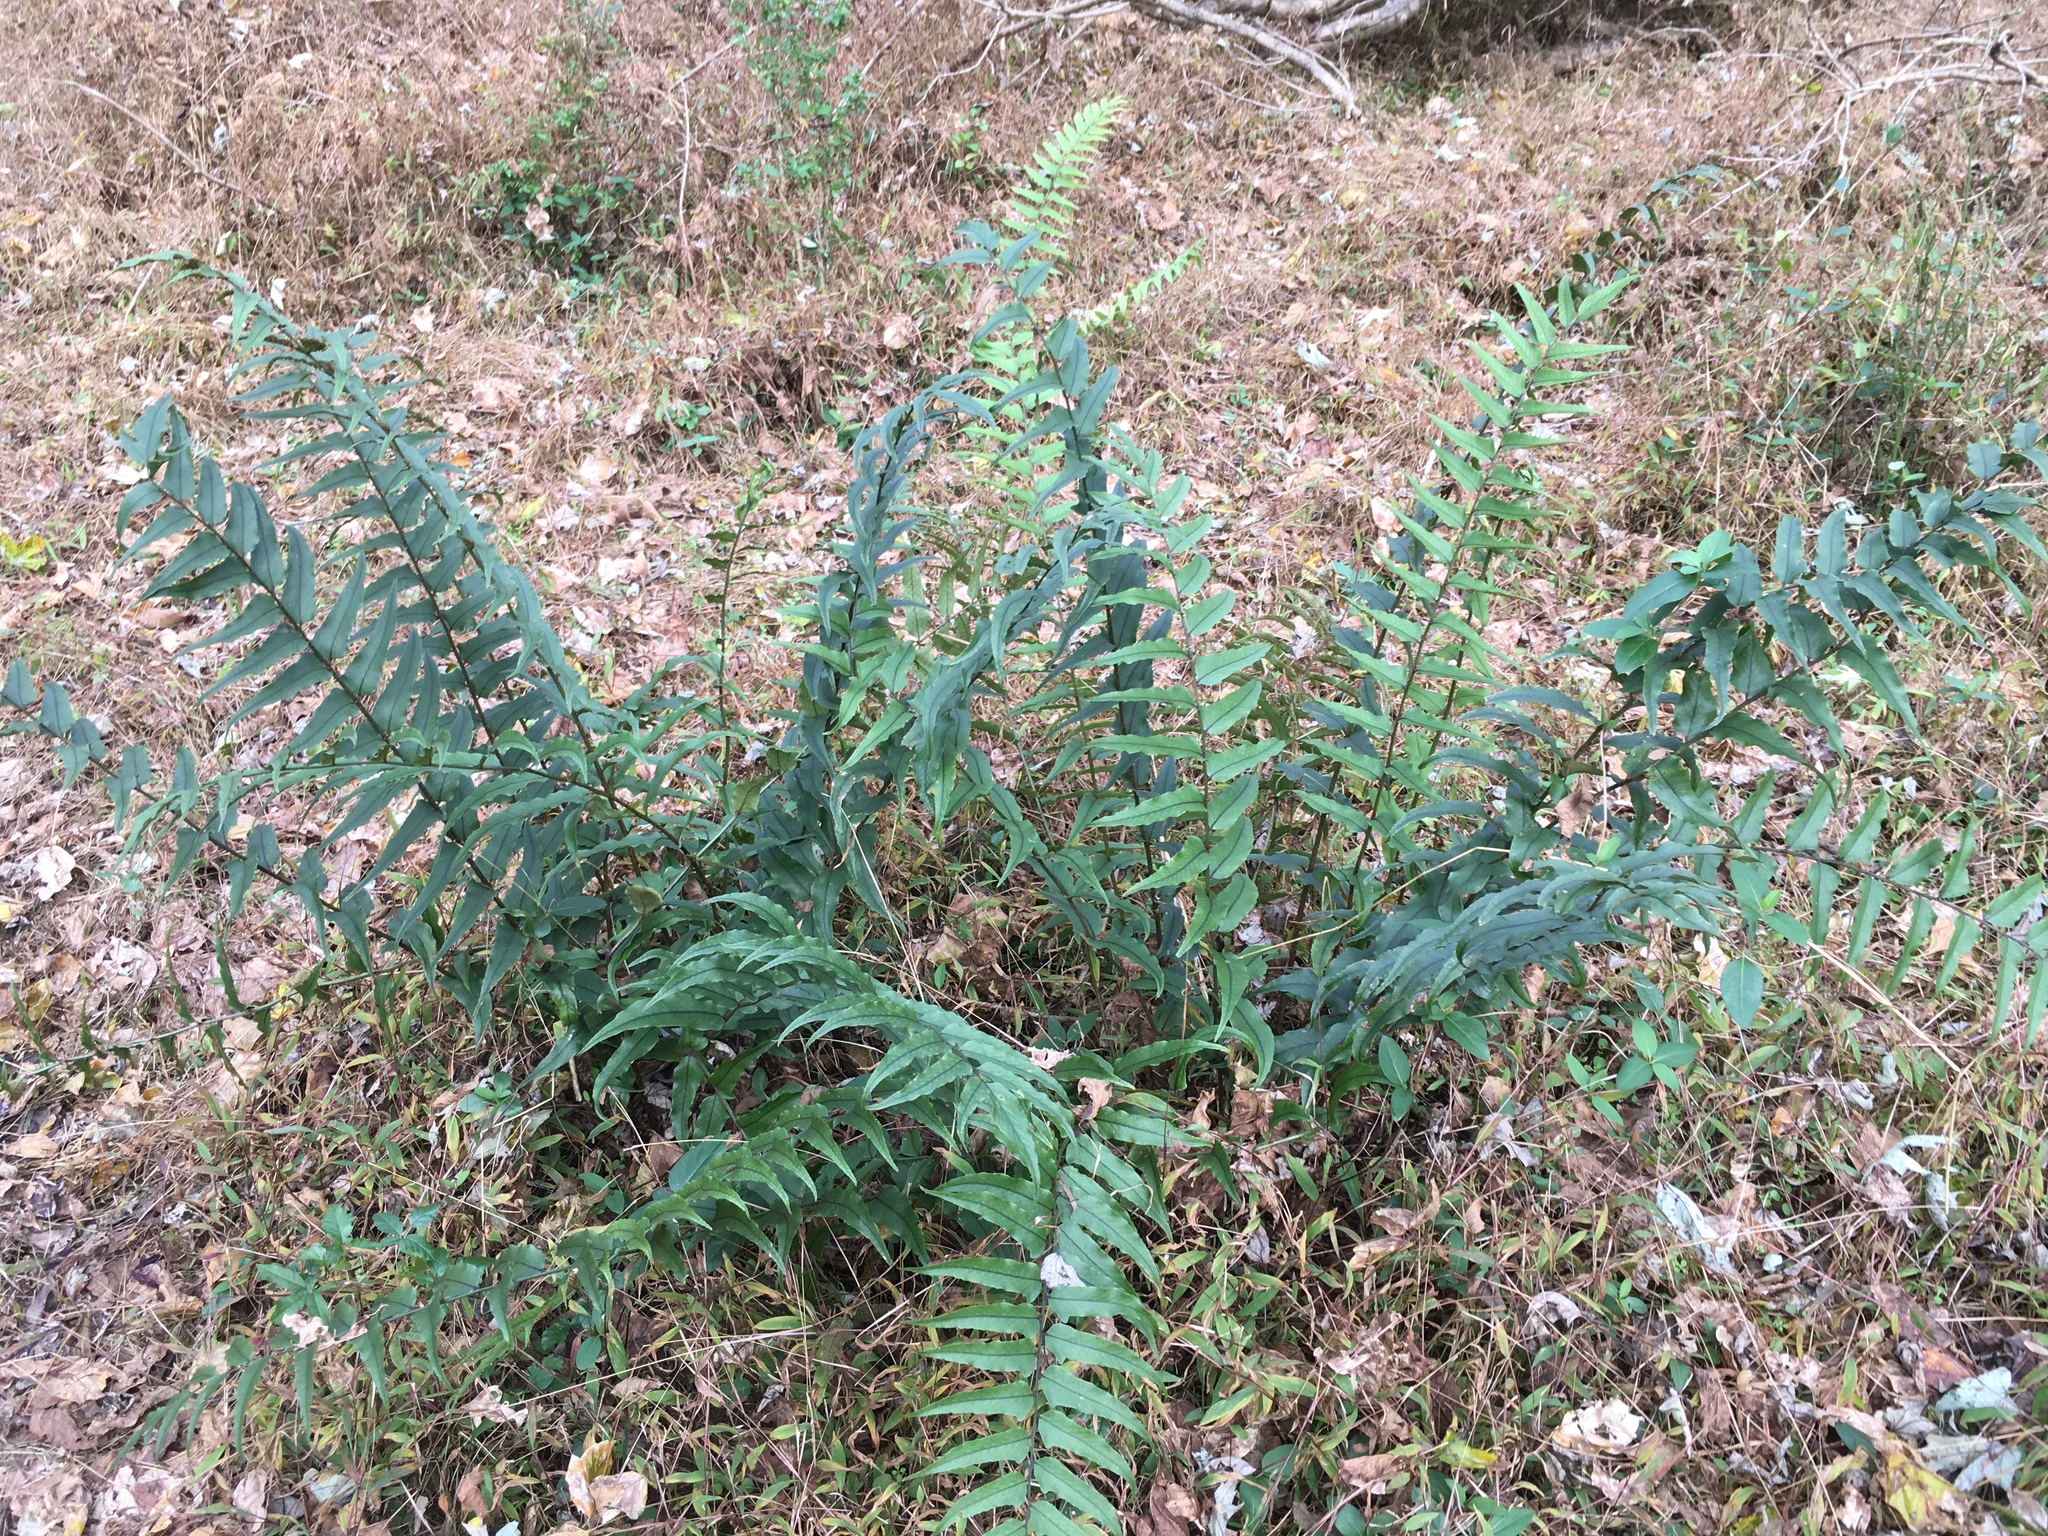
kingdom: Plantae
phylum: Tracheophyta
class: Polypodiopsida
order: Polypodiales
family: Dryopteridaceae
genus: Cyrtomium
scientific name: Cyrtomium fortunei
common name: Asian netvein hollyfern
